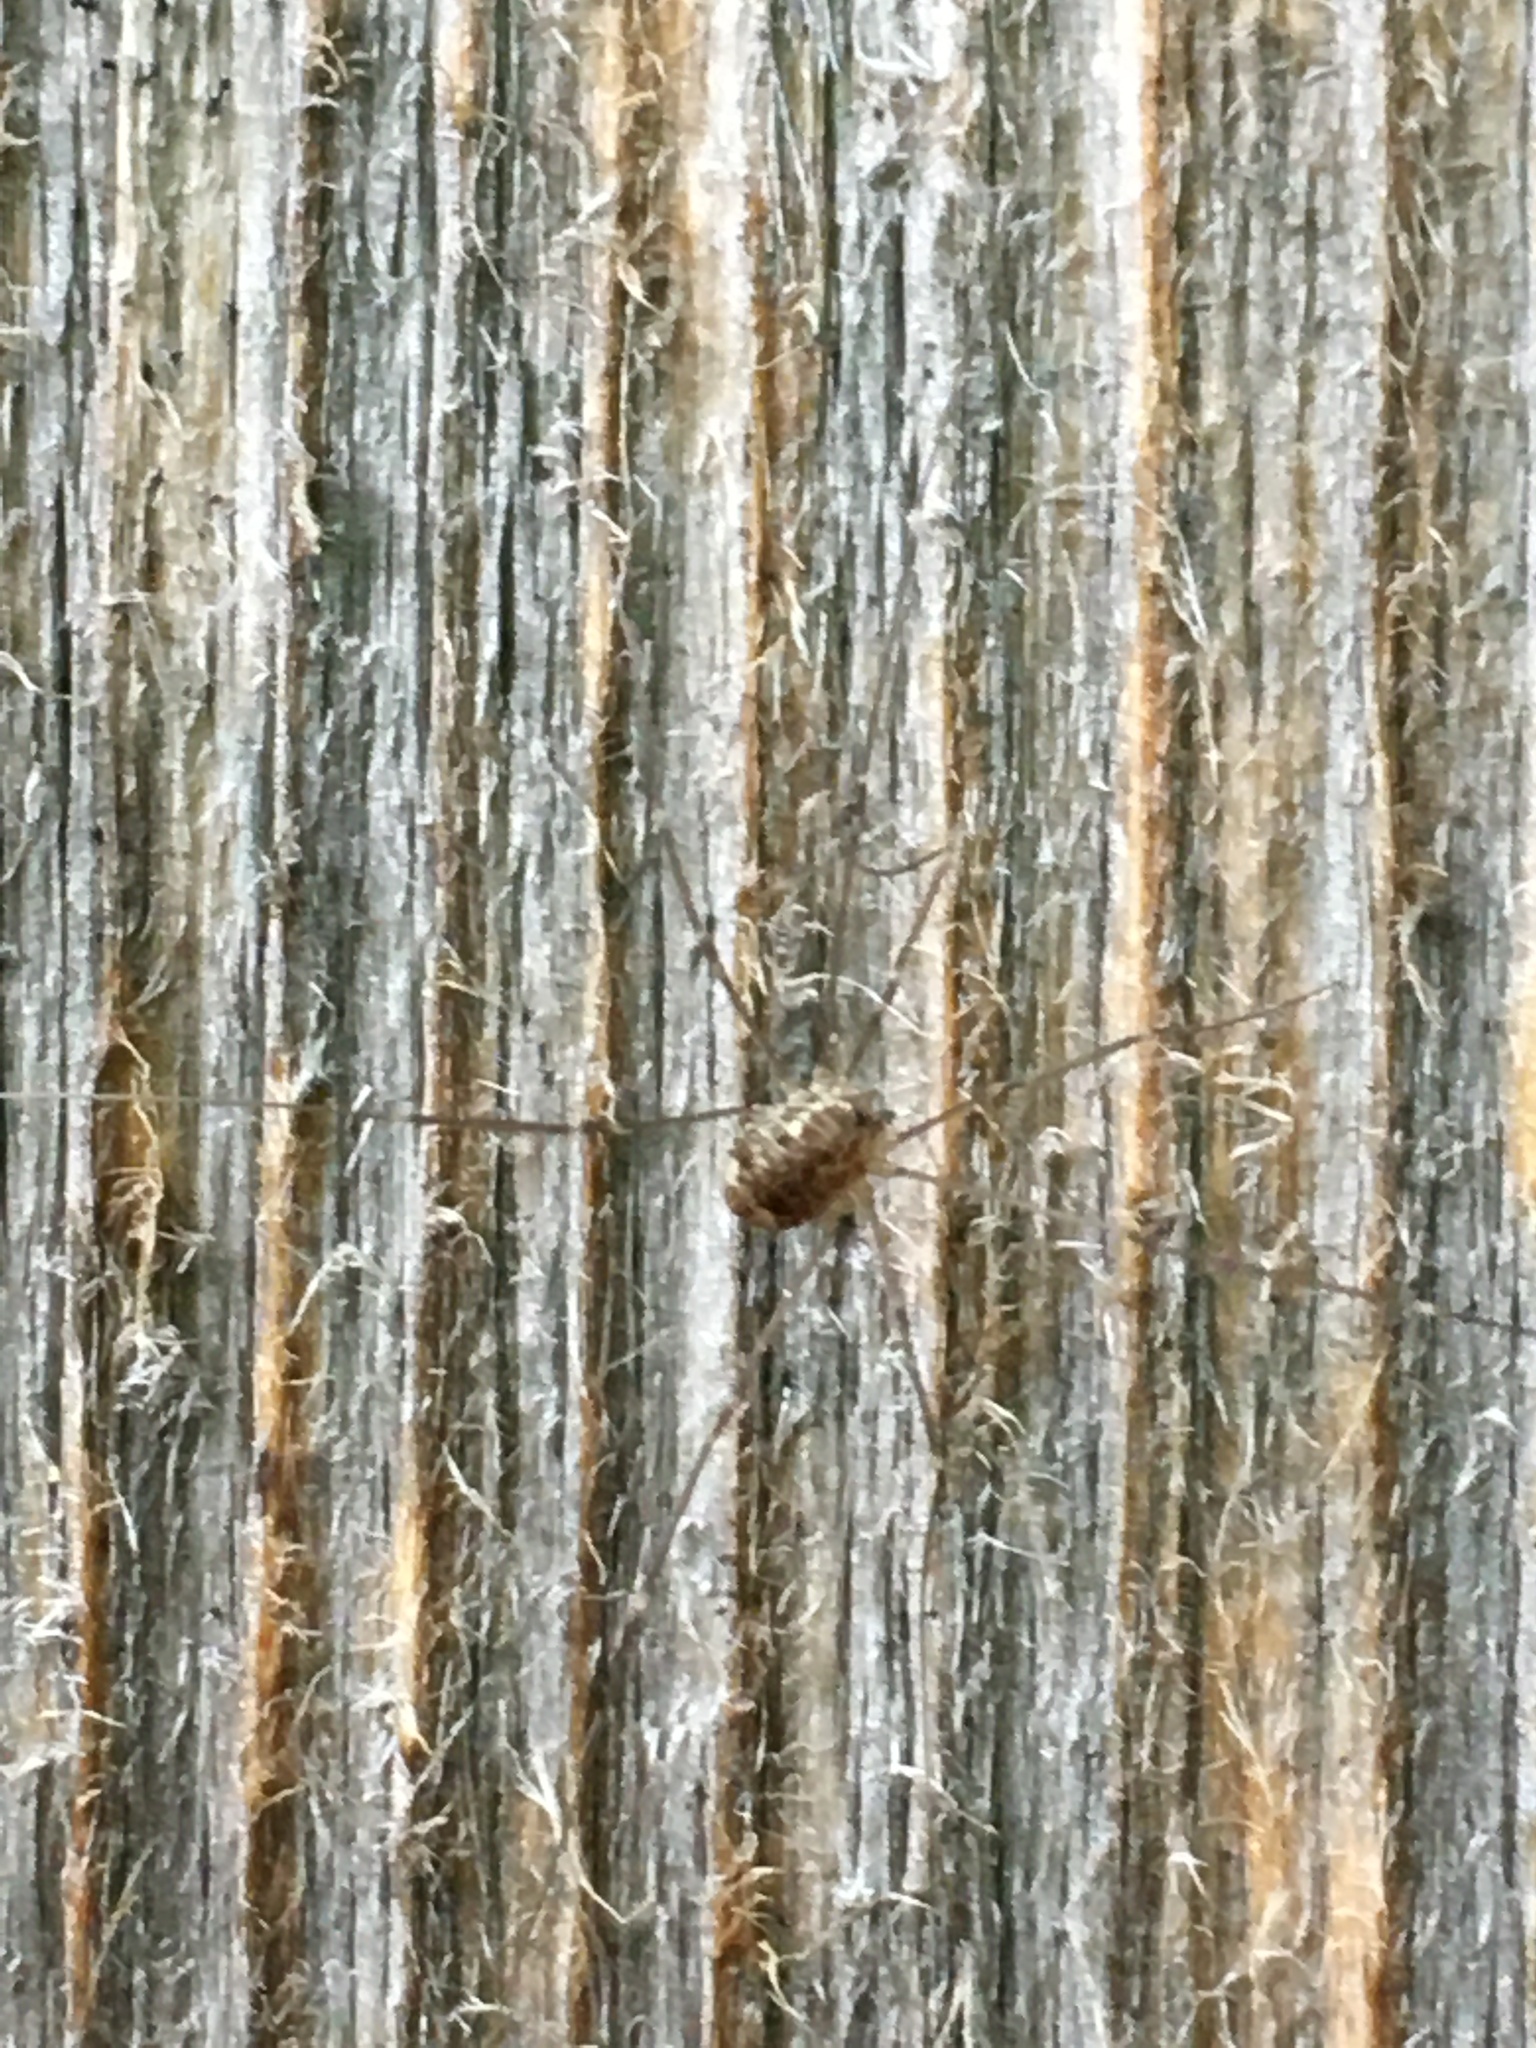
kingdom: Animalia
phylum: Arthropoda
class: Arachnida
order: Opiliones
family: Sclerosomatidae
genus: Leiobunum
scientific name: Leiobunum gracile
